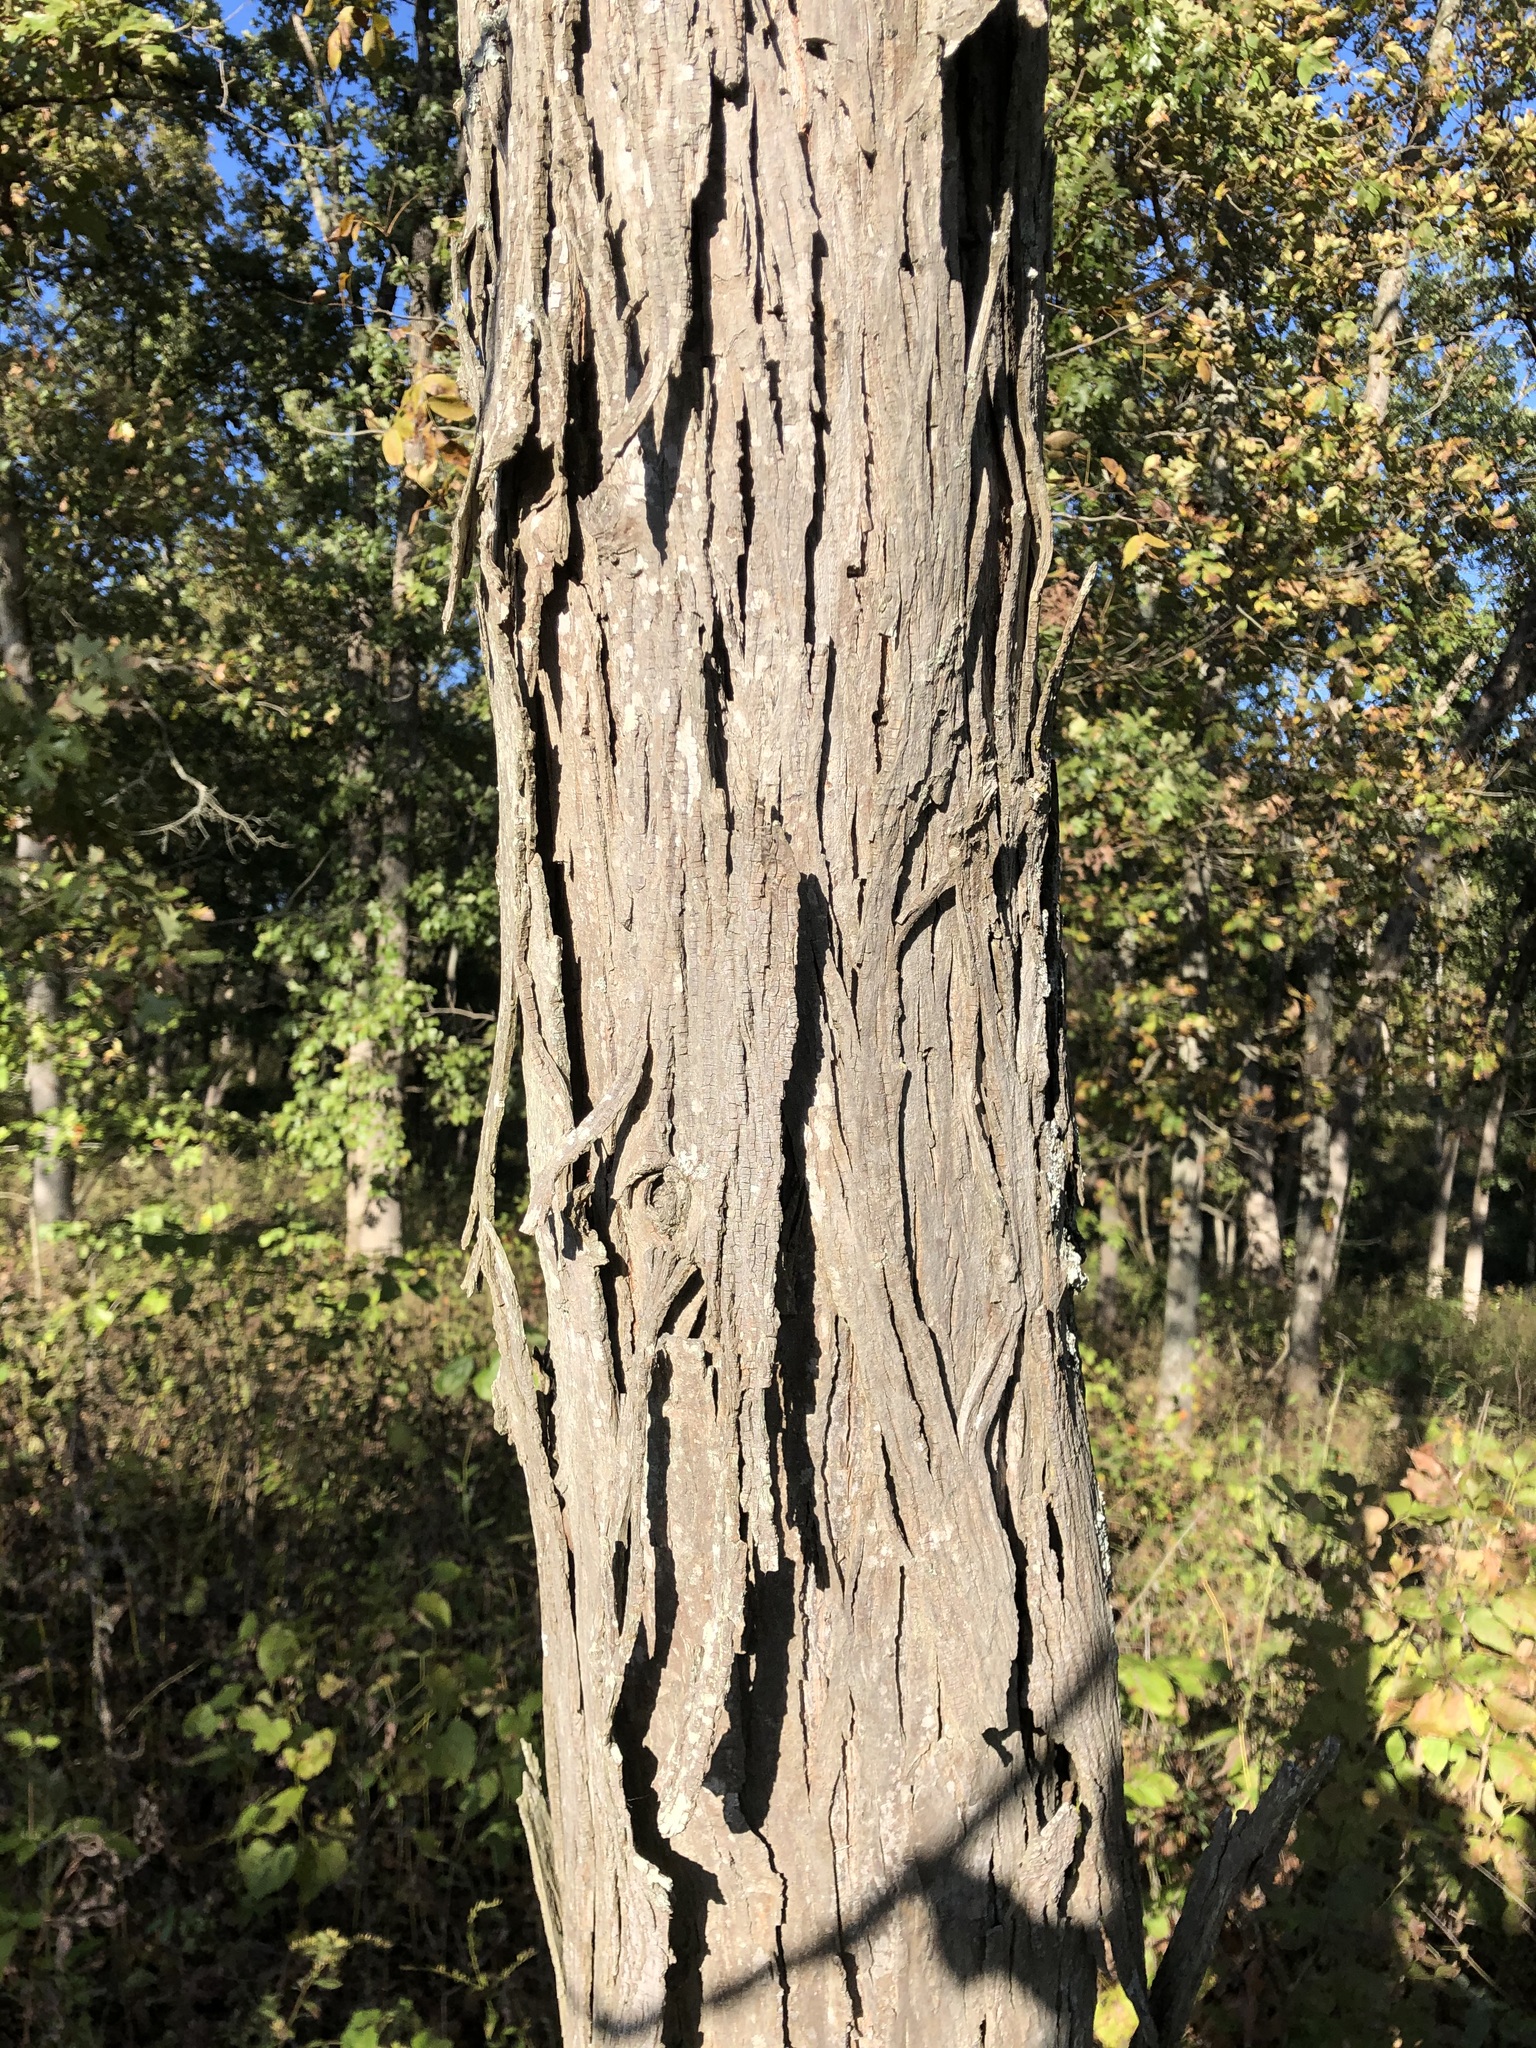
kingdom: Plantae
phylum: Tracheophyta
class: Magnoliopsida
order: Fagales
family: Juglandaceae
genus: Carya
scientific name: Carya ovata
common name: Shagbark hickory
